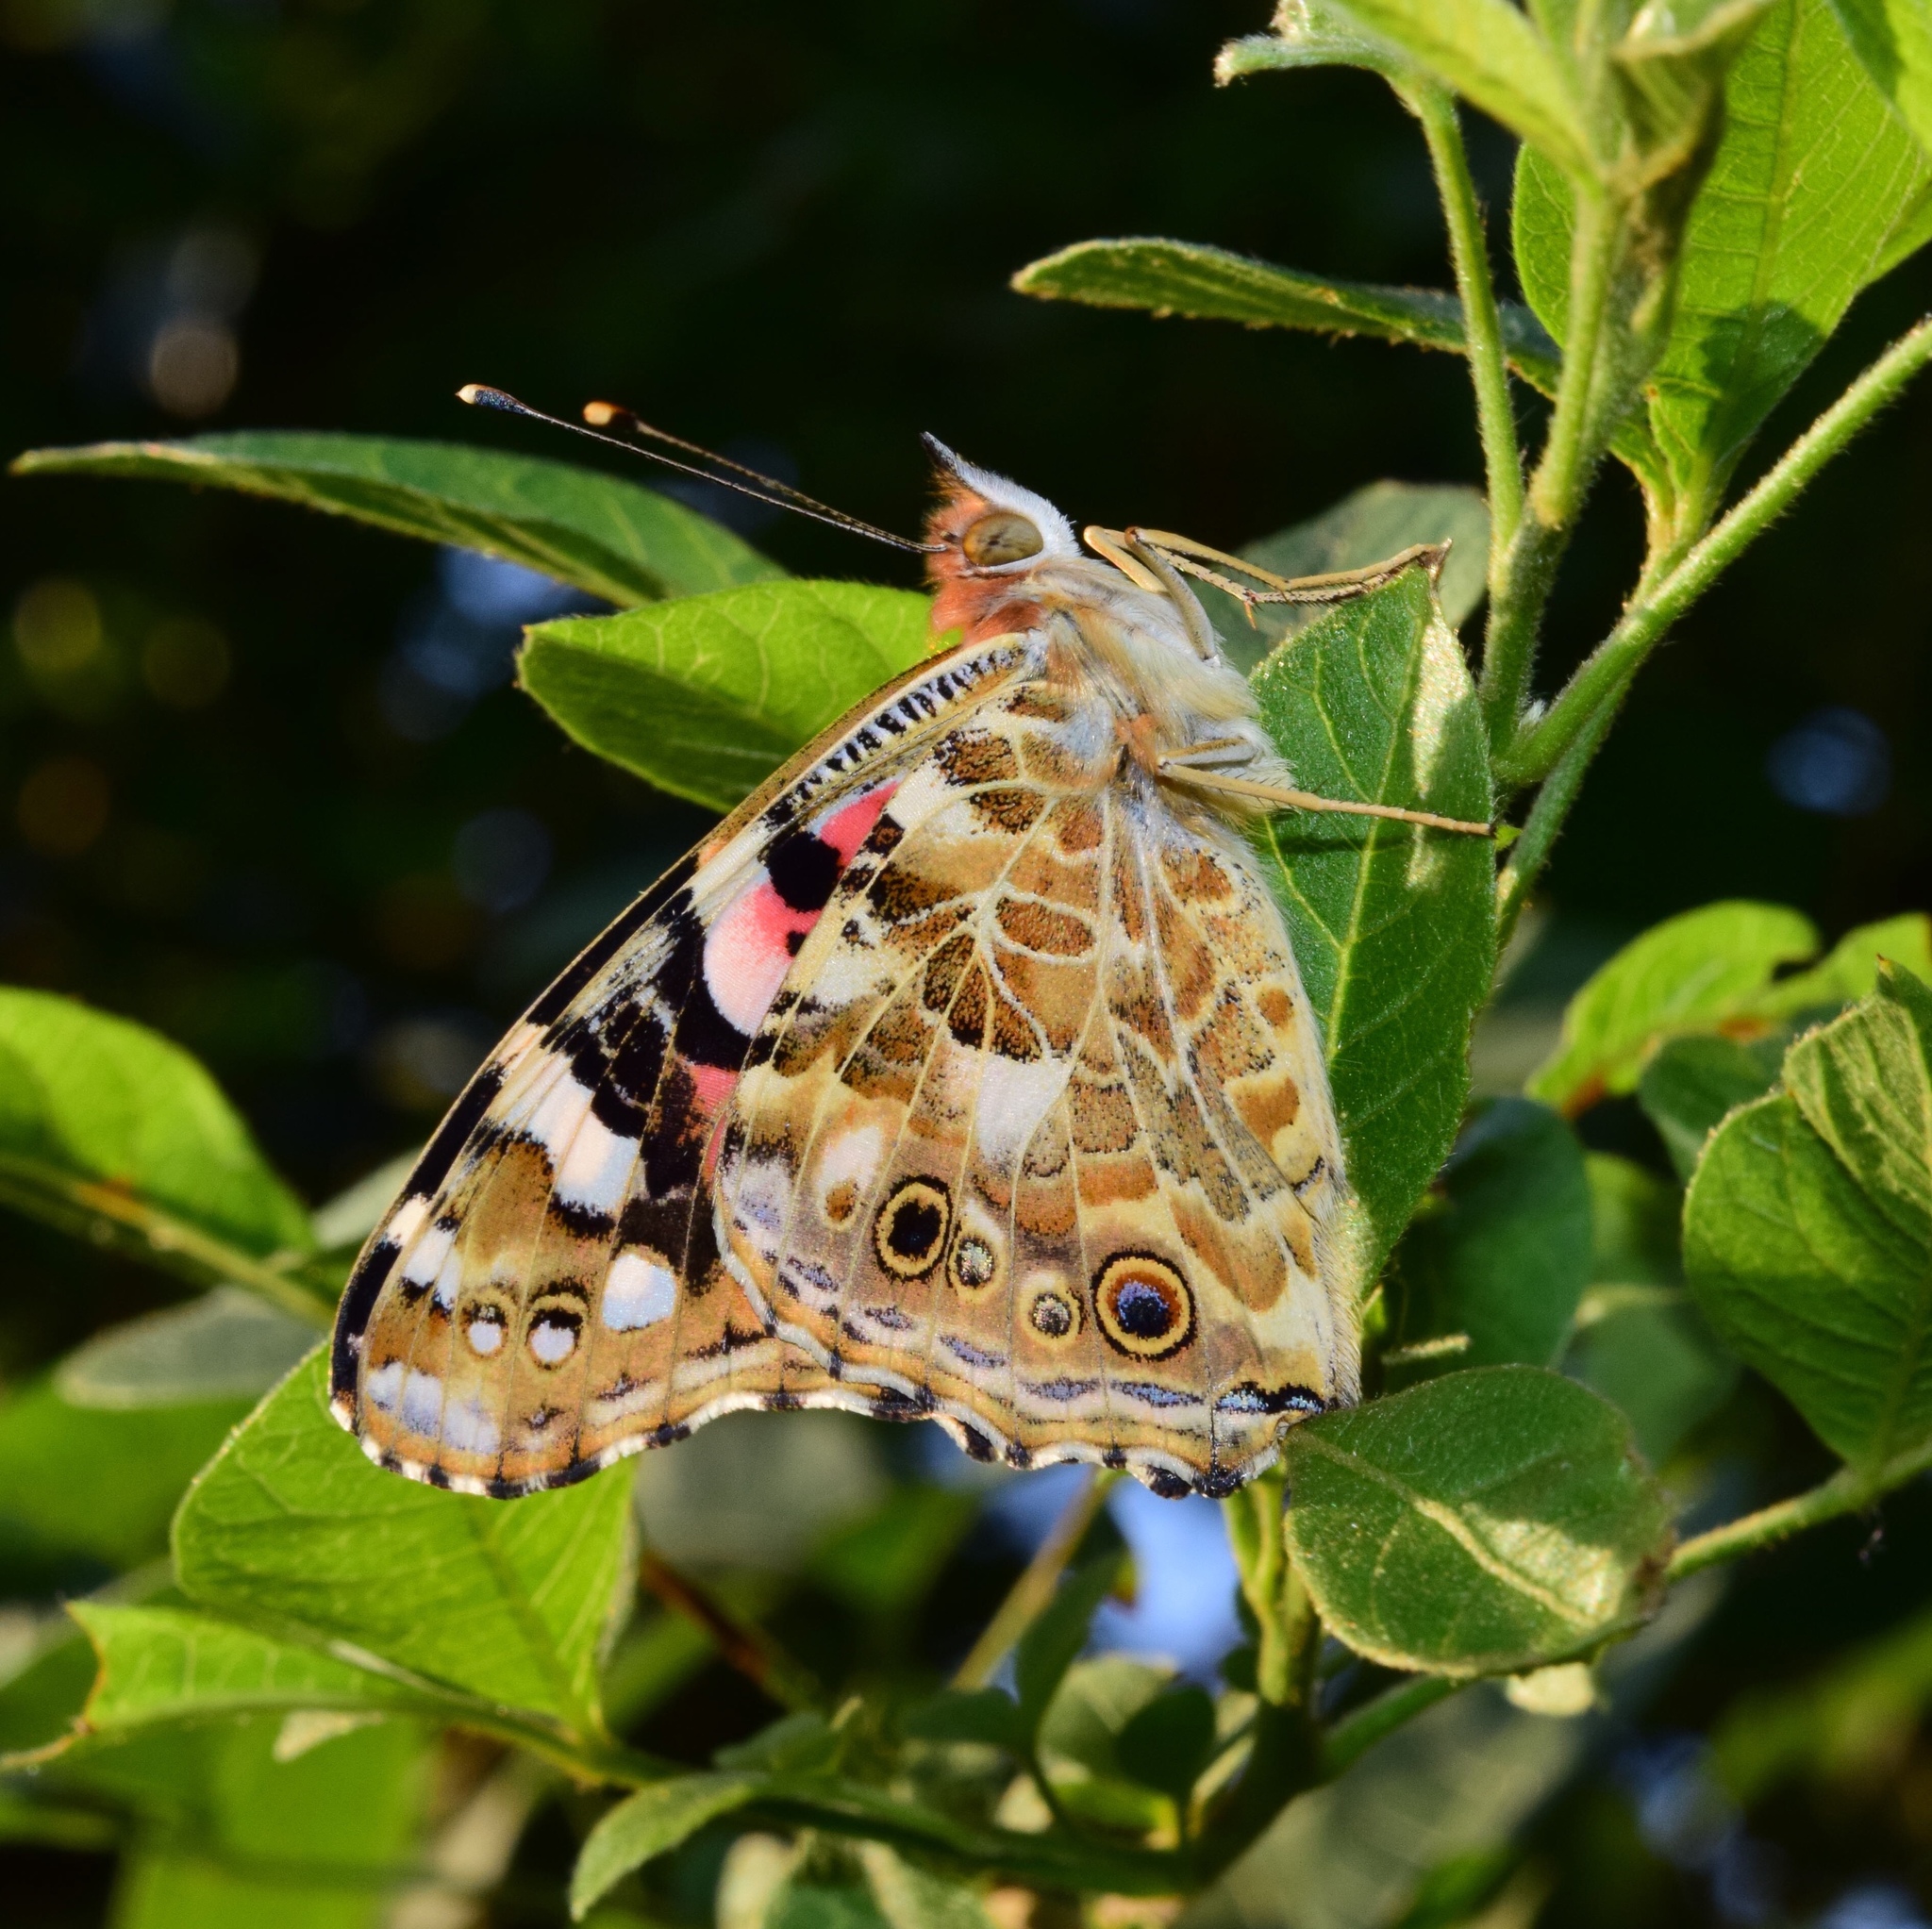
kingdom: Animalia
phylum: Arthropoda
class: Insecta
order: Lepidoptera
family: Nymphalidae
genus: Vanessa
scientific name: Vanessa cardui
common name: Painted lady
